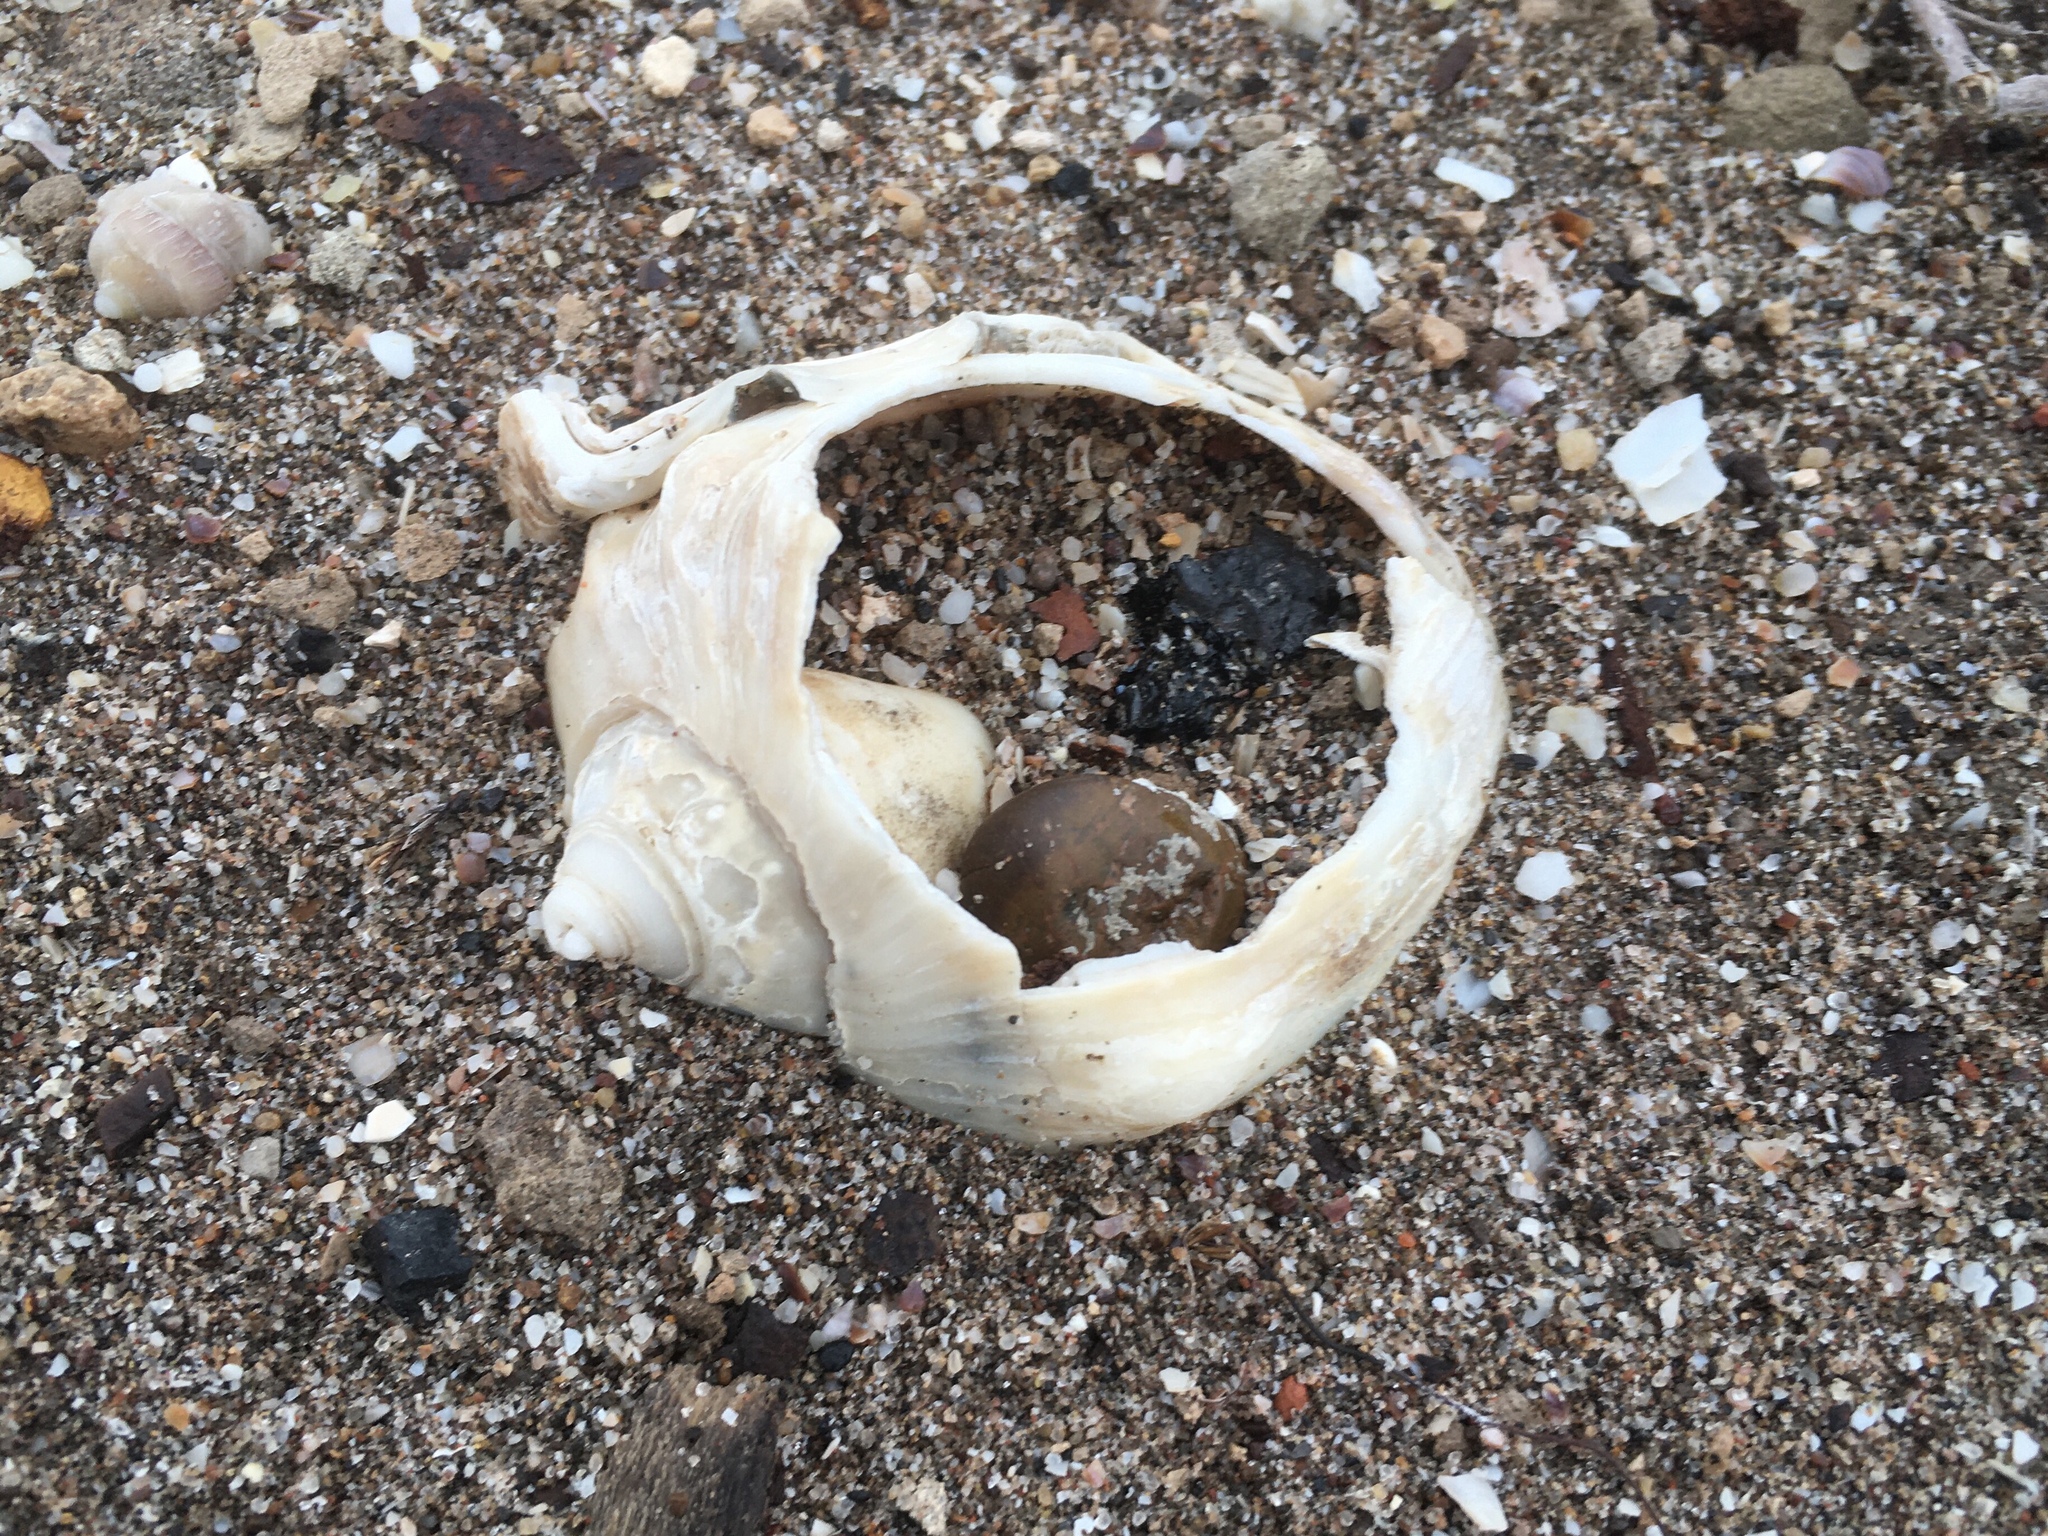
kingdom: Animalia
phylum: Mollusca
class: Gastropoda
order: Neogastropoda
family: Volutidae
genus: Pachycymbiola
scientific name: Pachycymbiola brasiliana
